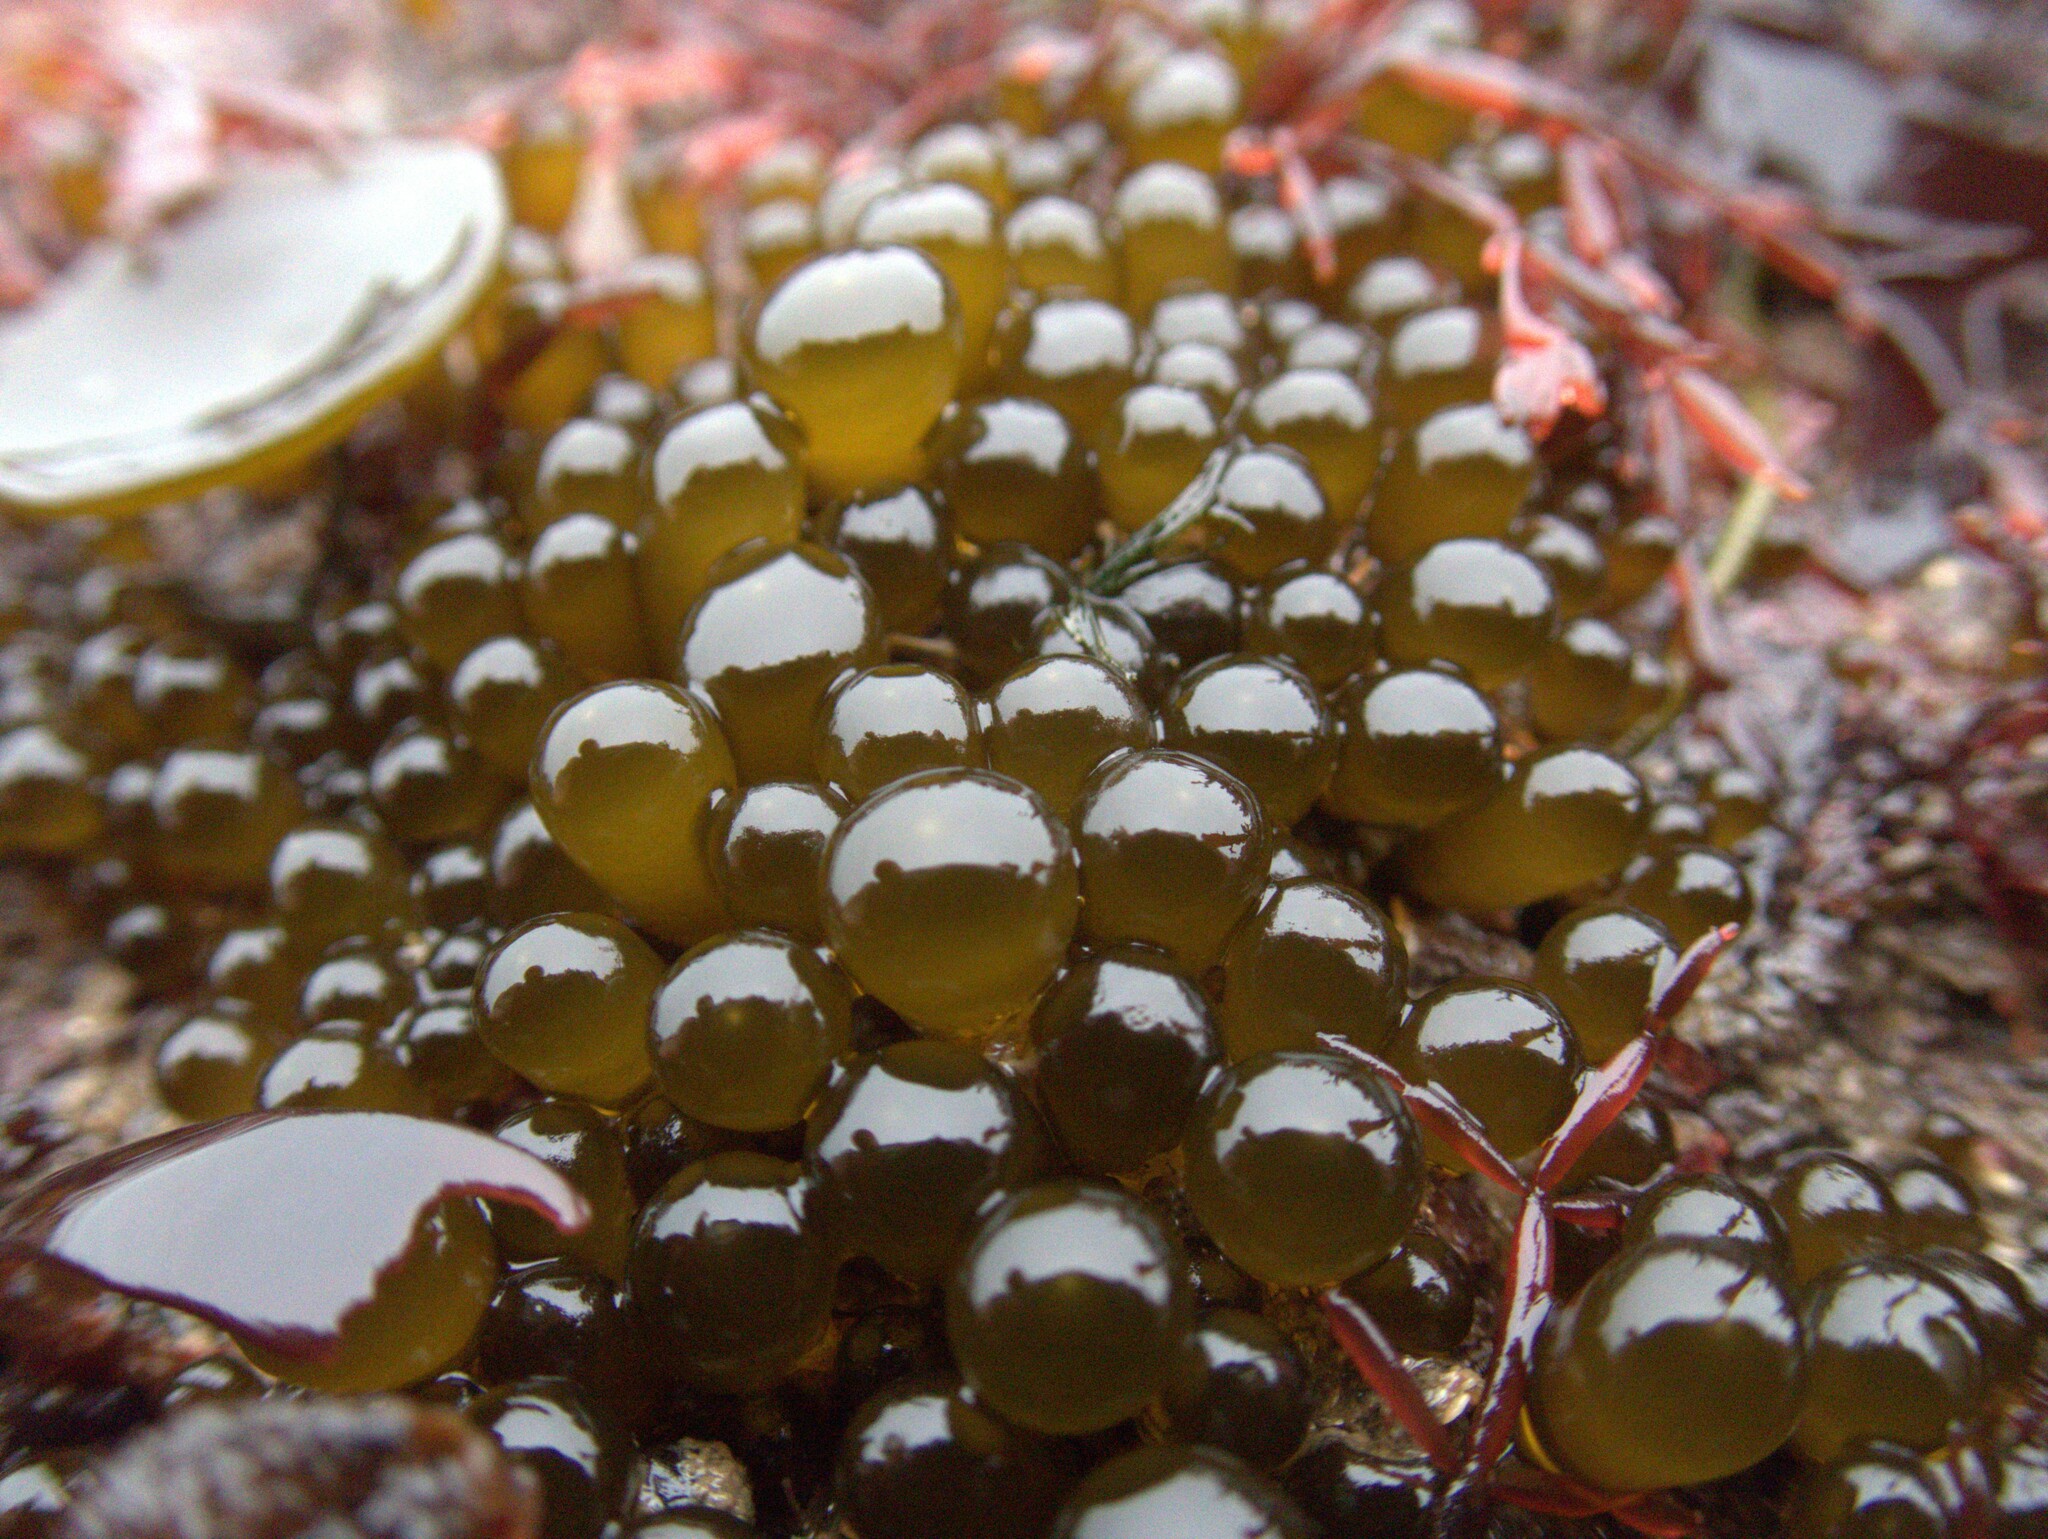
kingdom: Chromista
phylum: Ochrophyta
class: Phaeophyceae
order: Fucales
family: Himanthaliaceae
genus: Himanthalia
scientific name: Himanthalia elongata
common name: Sea-thong
